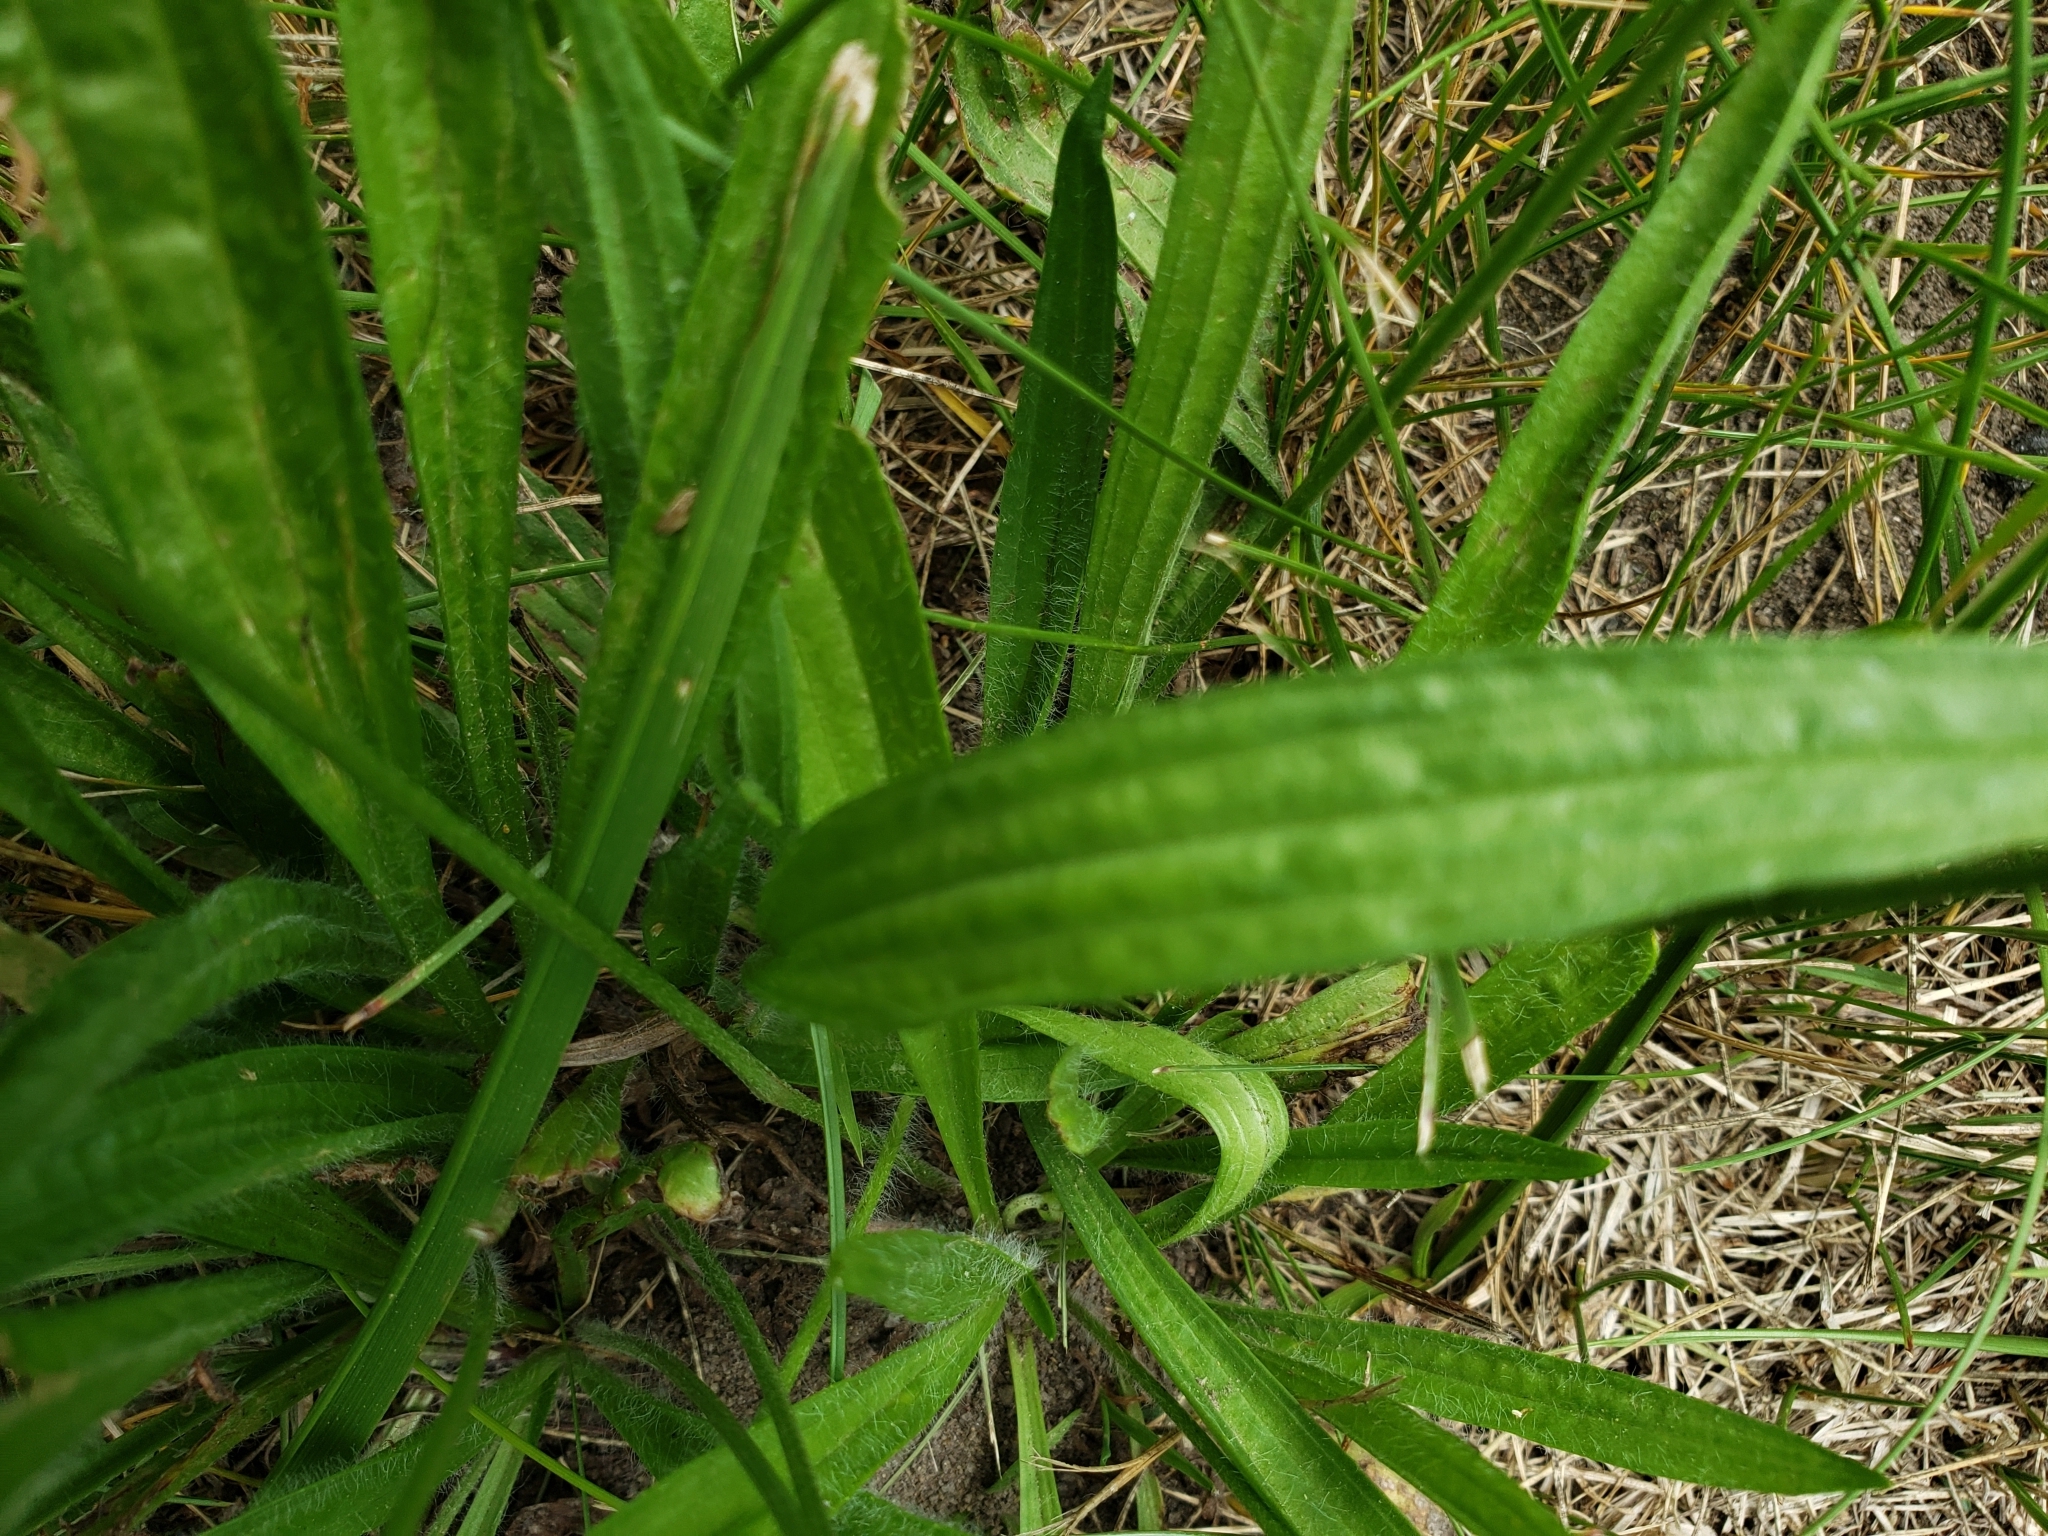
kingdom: Plantae
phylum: Tracheophyta
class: Magnoliopsida
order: Lamiales
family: Plantaginaceae
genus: Plantago
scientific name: Plantago lanceolata
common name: Ribwort plantain
